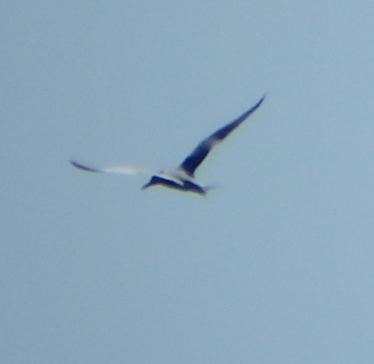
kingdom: Animalia
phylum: Chordata
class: Aves
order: Charadriiformes
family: Laridae
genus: Thalasseus
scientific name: Thalasseus maximus
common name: Royal tern
